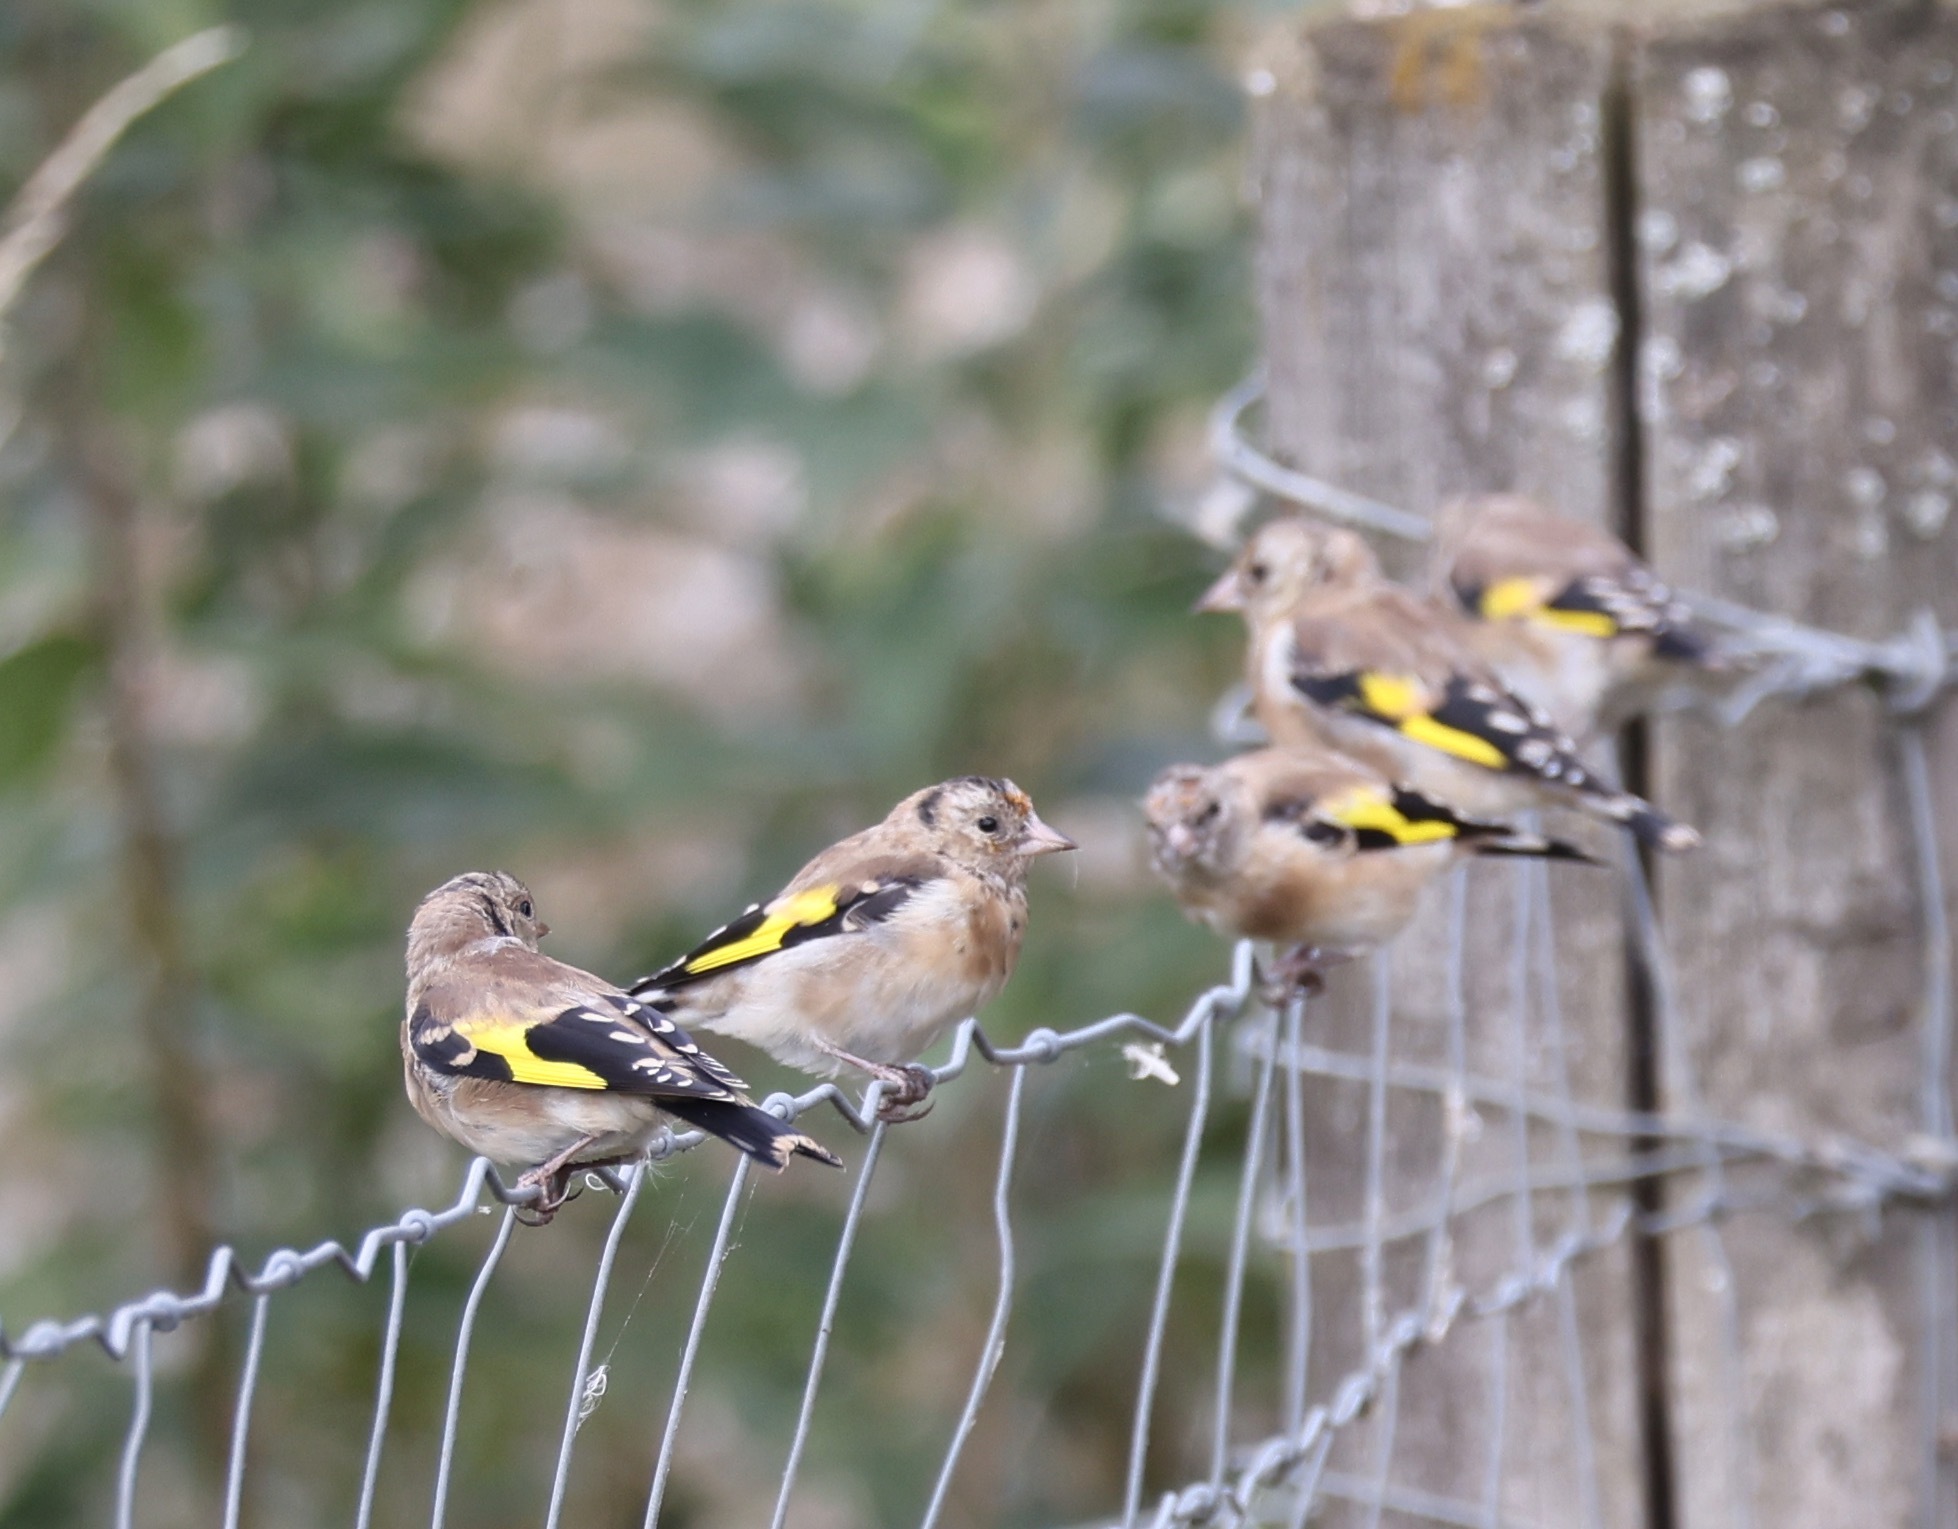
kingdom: Animalia
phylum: Chordata
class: Aves
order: Passeriformes
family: Fringillidae
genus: Carduelis
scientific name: Carduelis carduelis
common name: European goldfinch
